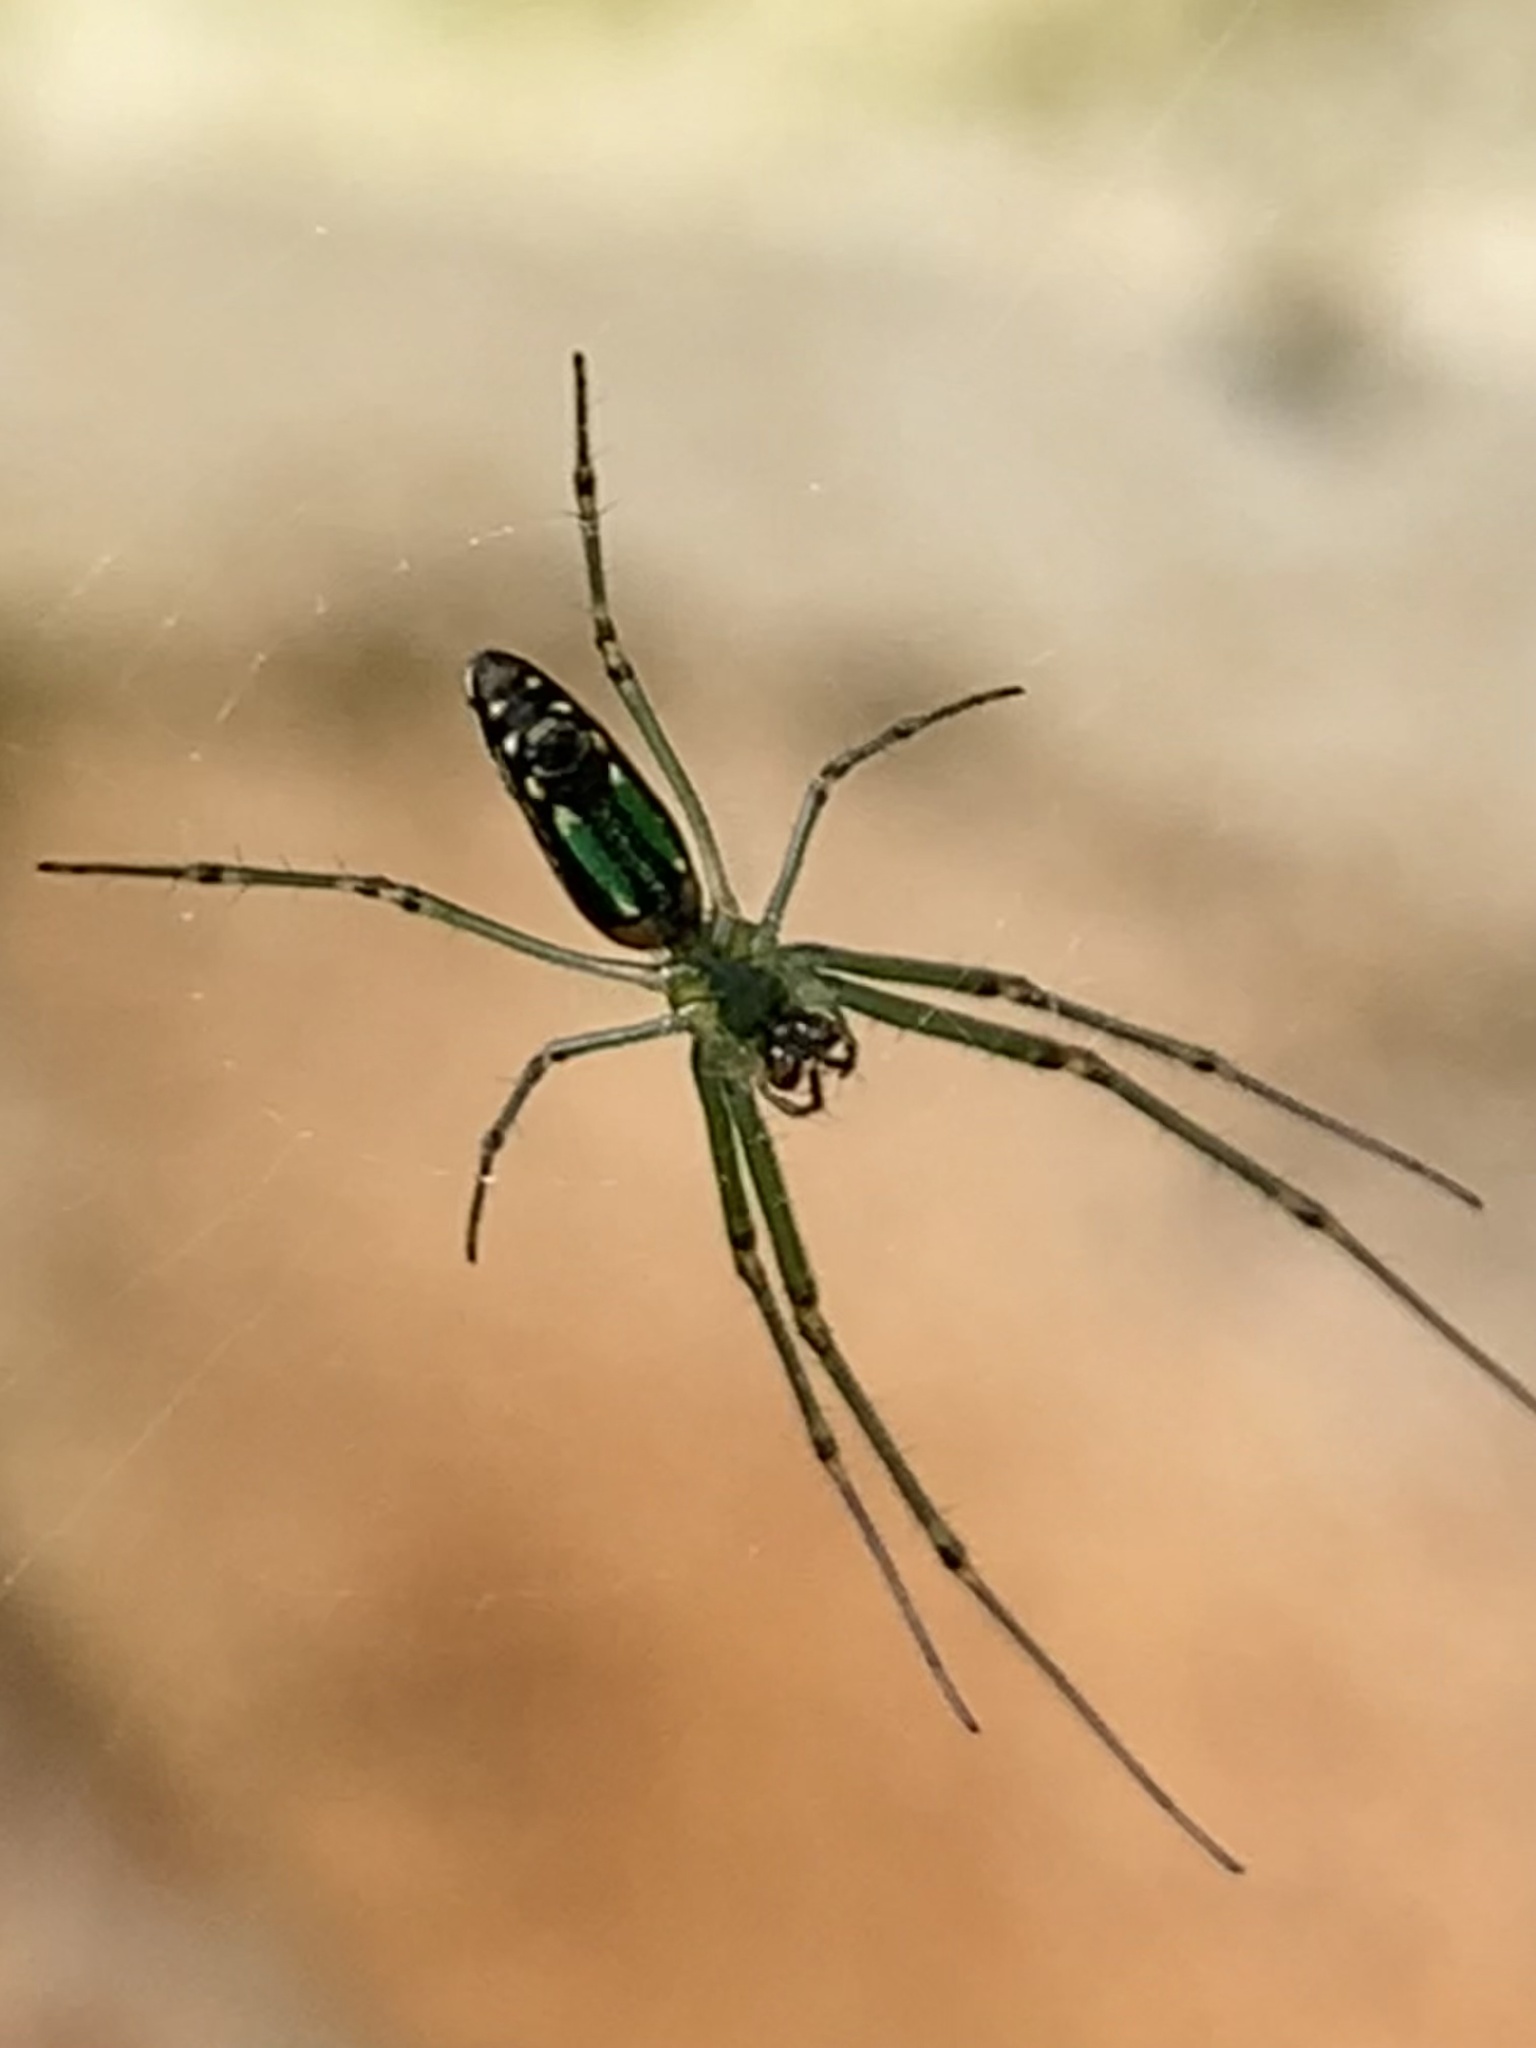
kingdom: Animalia
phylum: Arthropoda
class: Arachnida
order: Araneae
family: Tetragnathidae
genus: Leucauge
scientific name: Leucauge decorata
